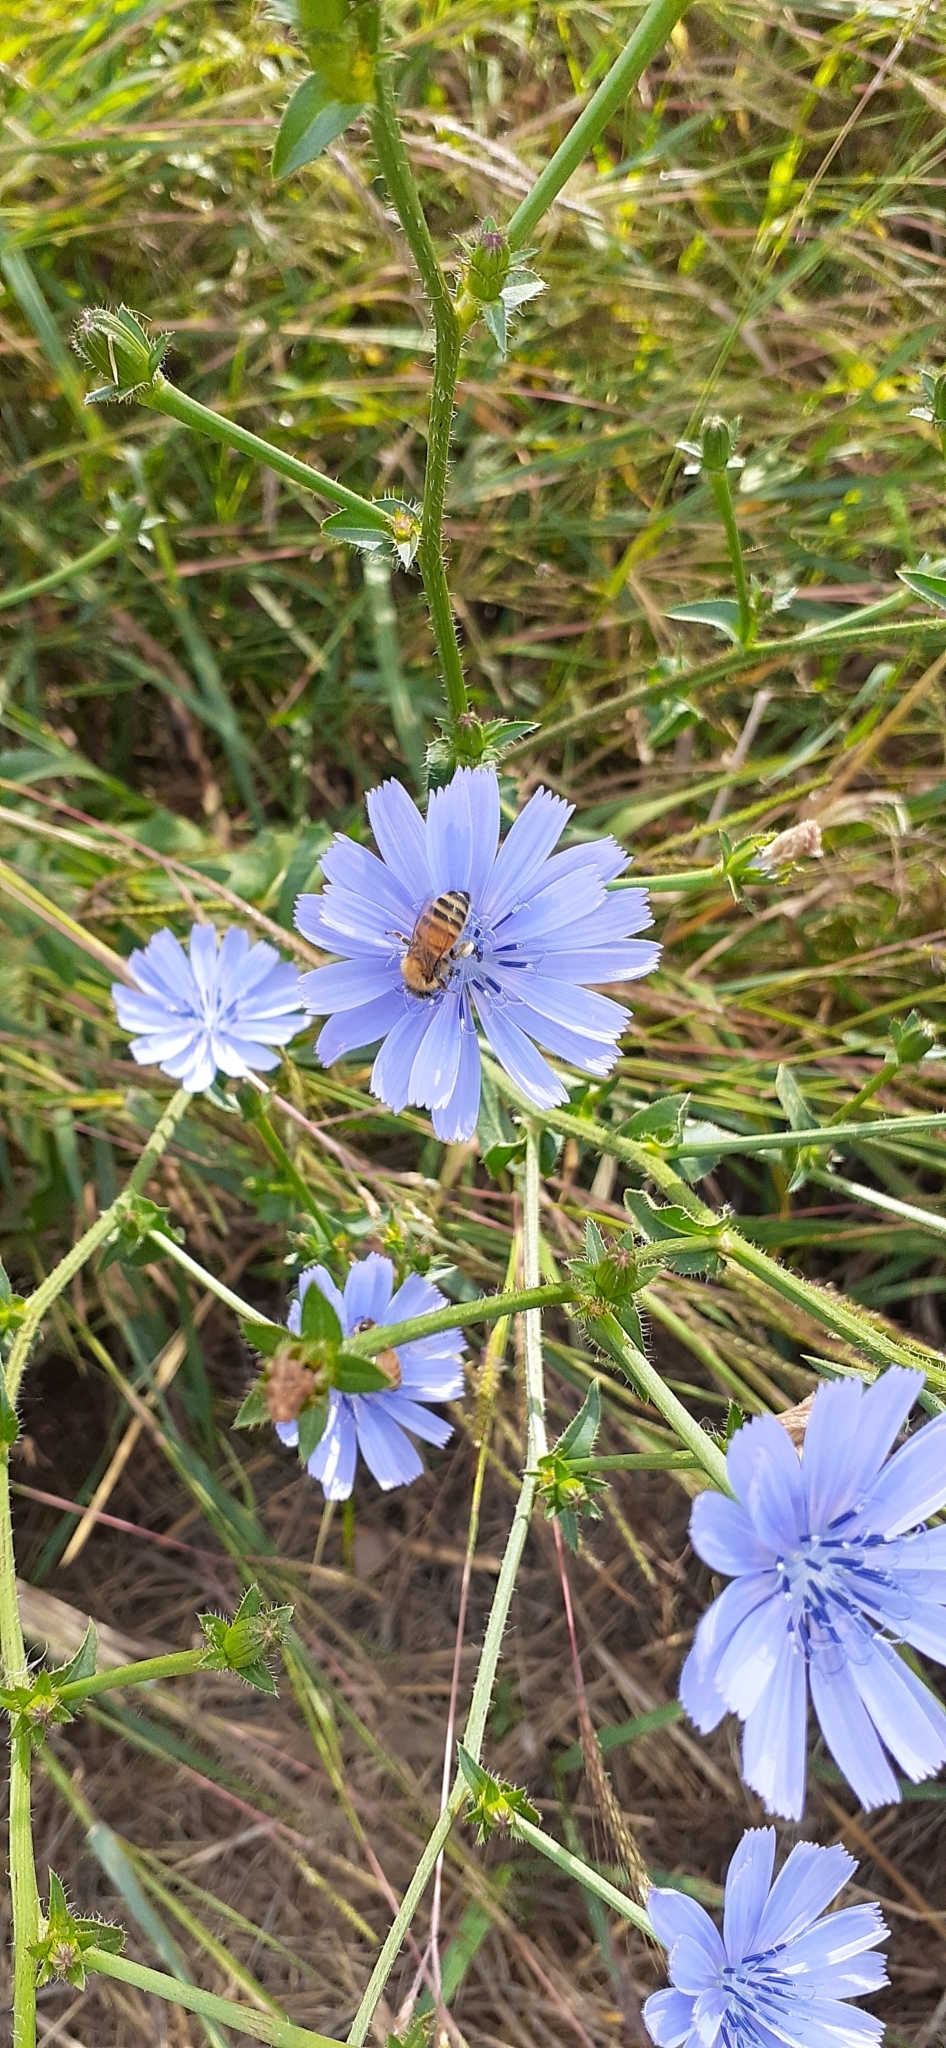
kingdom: Plantae
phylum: Tracheophyta
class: Magnoliopsida
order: Asterales
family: Asteraceae
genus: Cichorium
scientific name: Cichorium intybus
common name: Chicory
